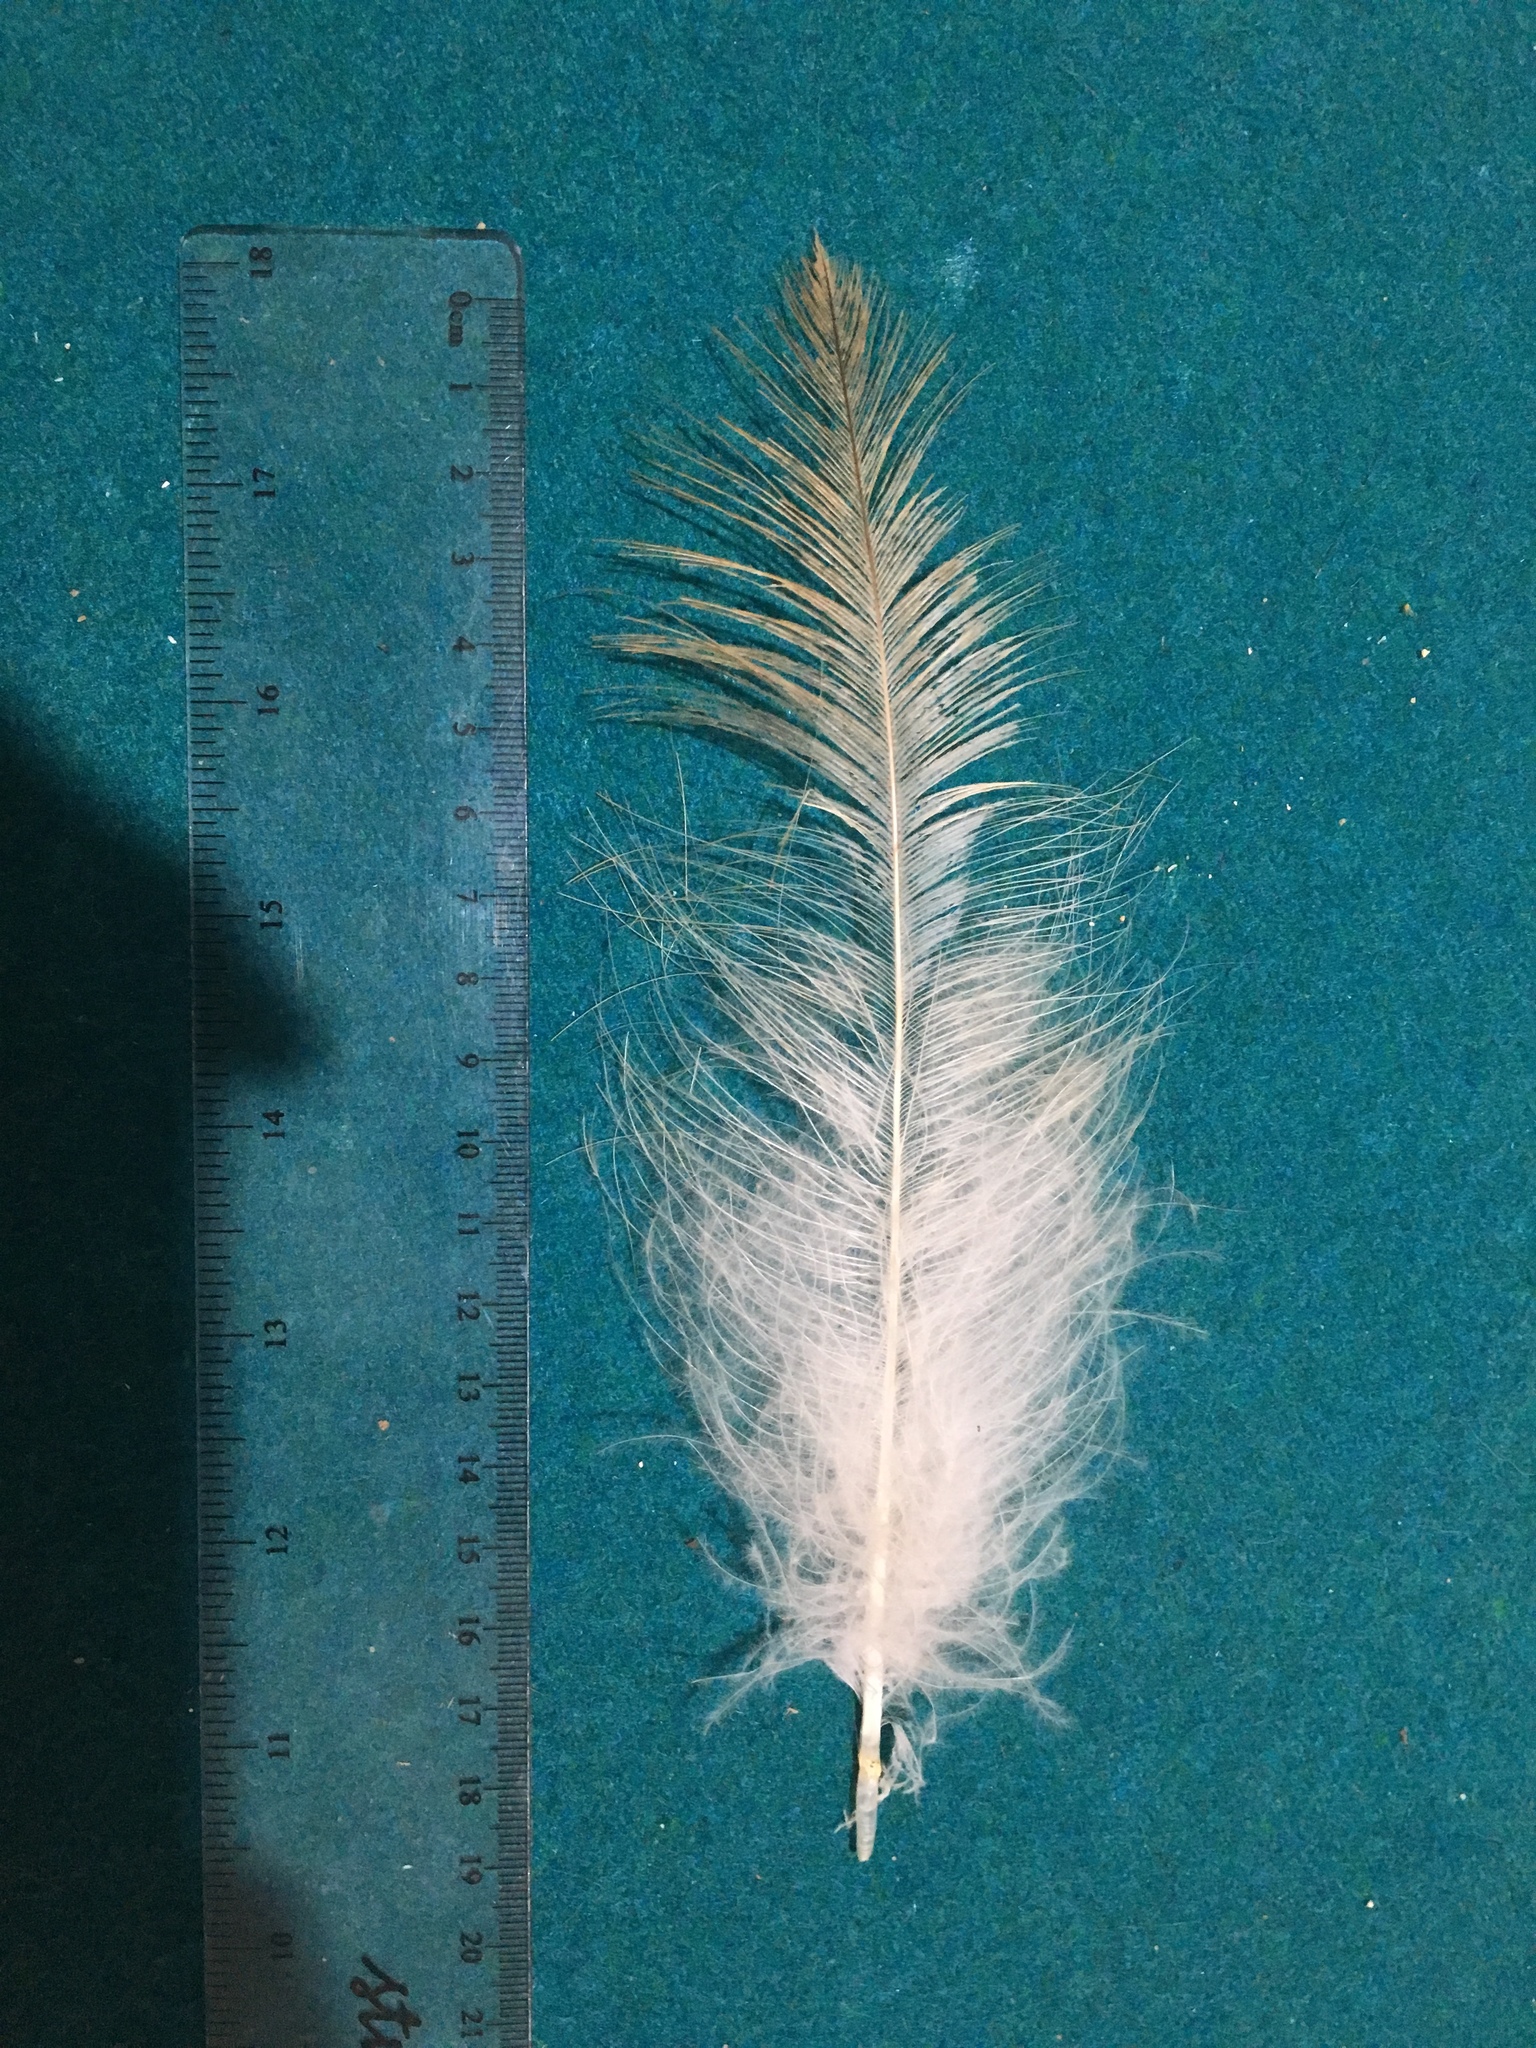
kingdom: Animalia
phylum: Chordata
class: Aves
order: Accipitriformes
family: Accipitridae
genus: Aquila
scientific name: Aquila audax
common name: Wedge-tailed eagle
